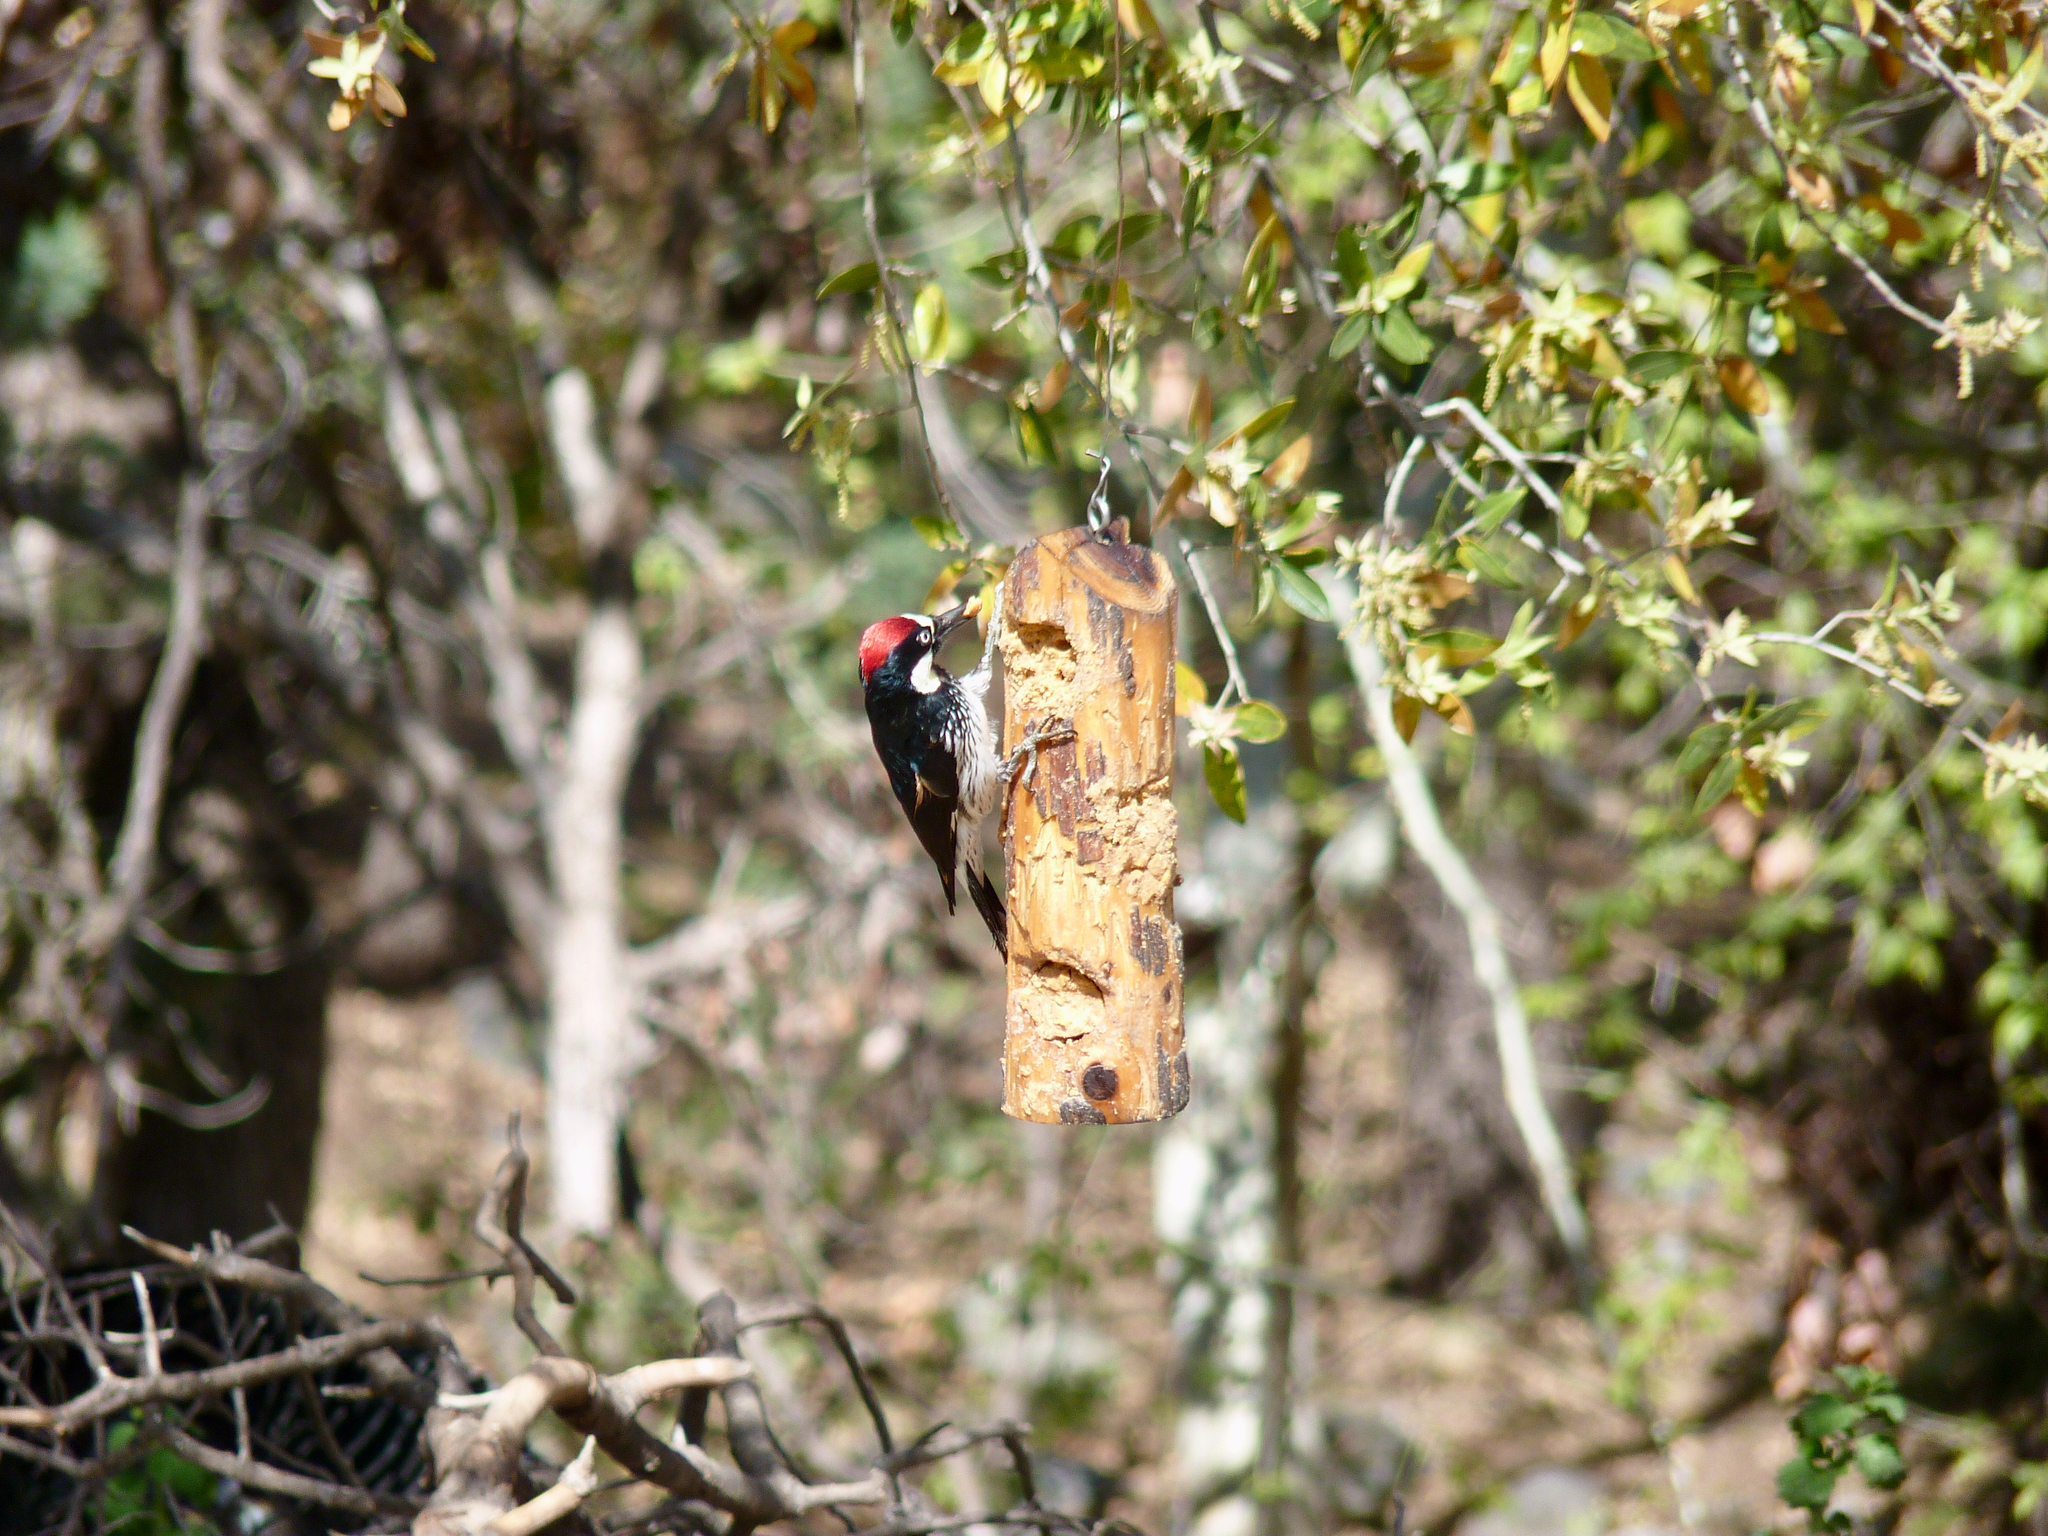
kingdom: Animalia
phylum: Chordata
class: Aves
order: Piciformes
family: Picidae
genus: Melanerpes
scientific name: Melanerpes formicivorus
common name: Acorn woodpecker
